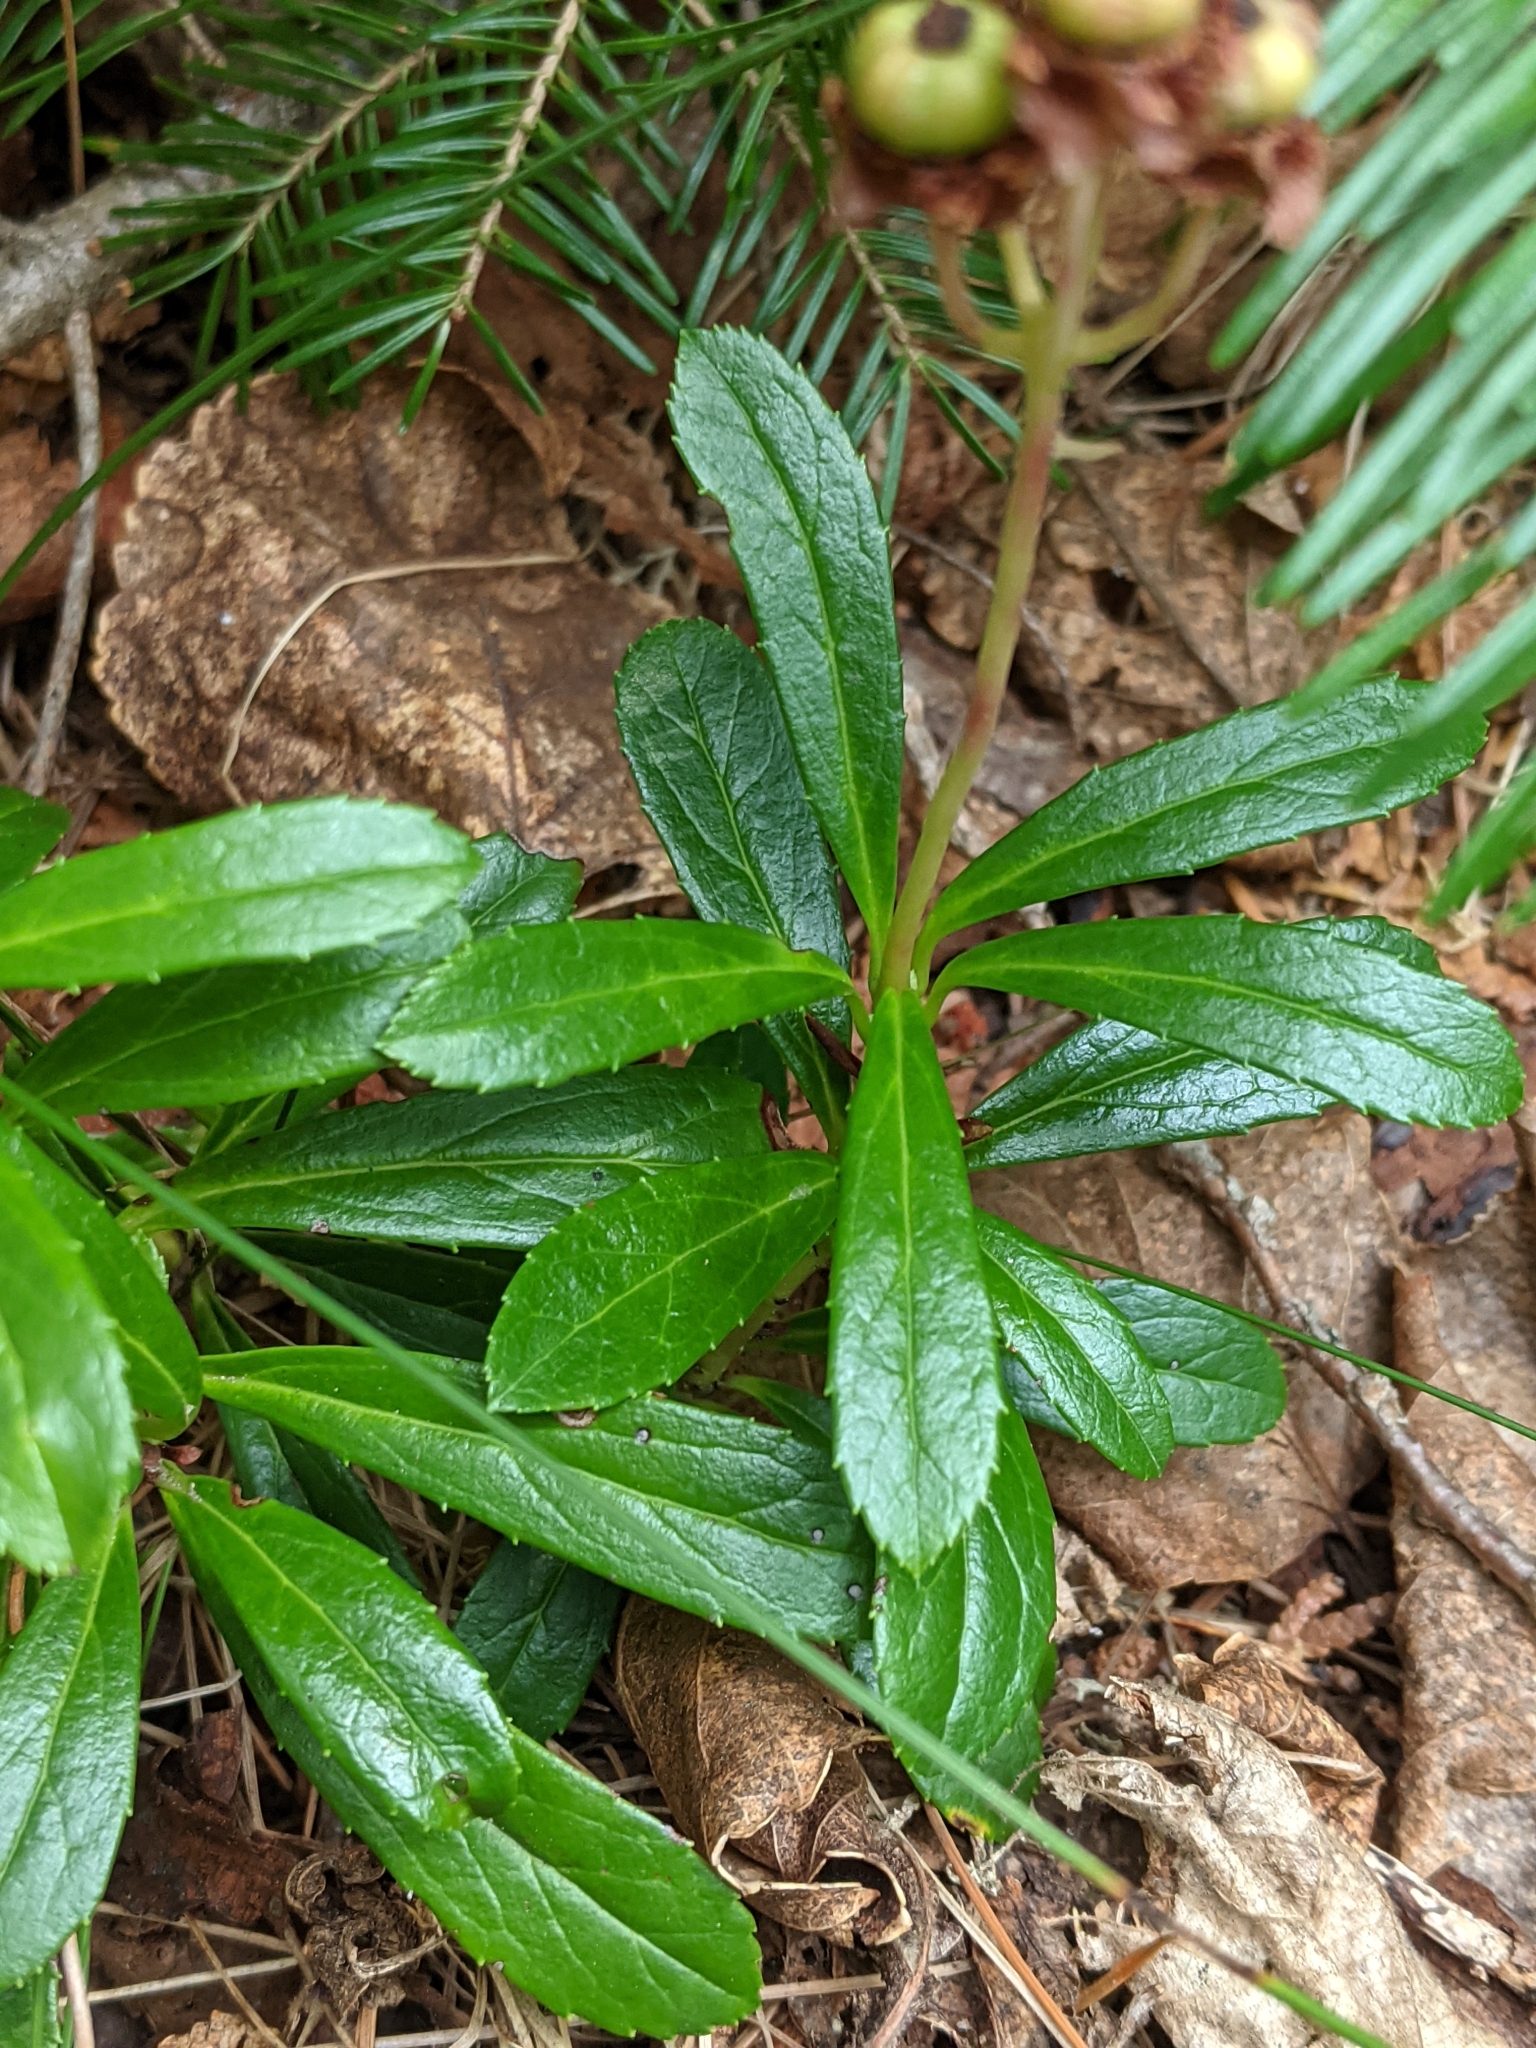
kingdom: Plantae
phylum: Tracheophyta
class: Magnoliopsida
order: Ericales
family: Ericaceae
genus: Chimaphila
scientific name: Chimaphila umbellata
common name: Pipsissewa
